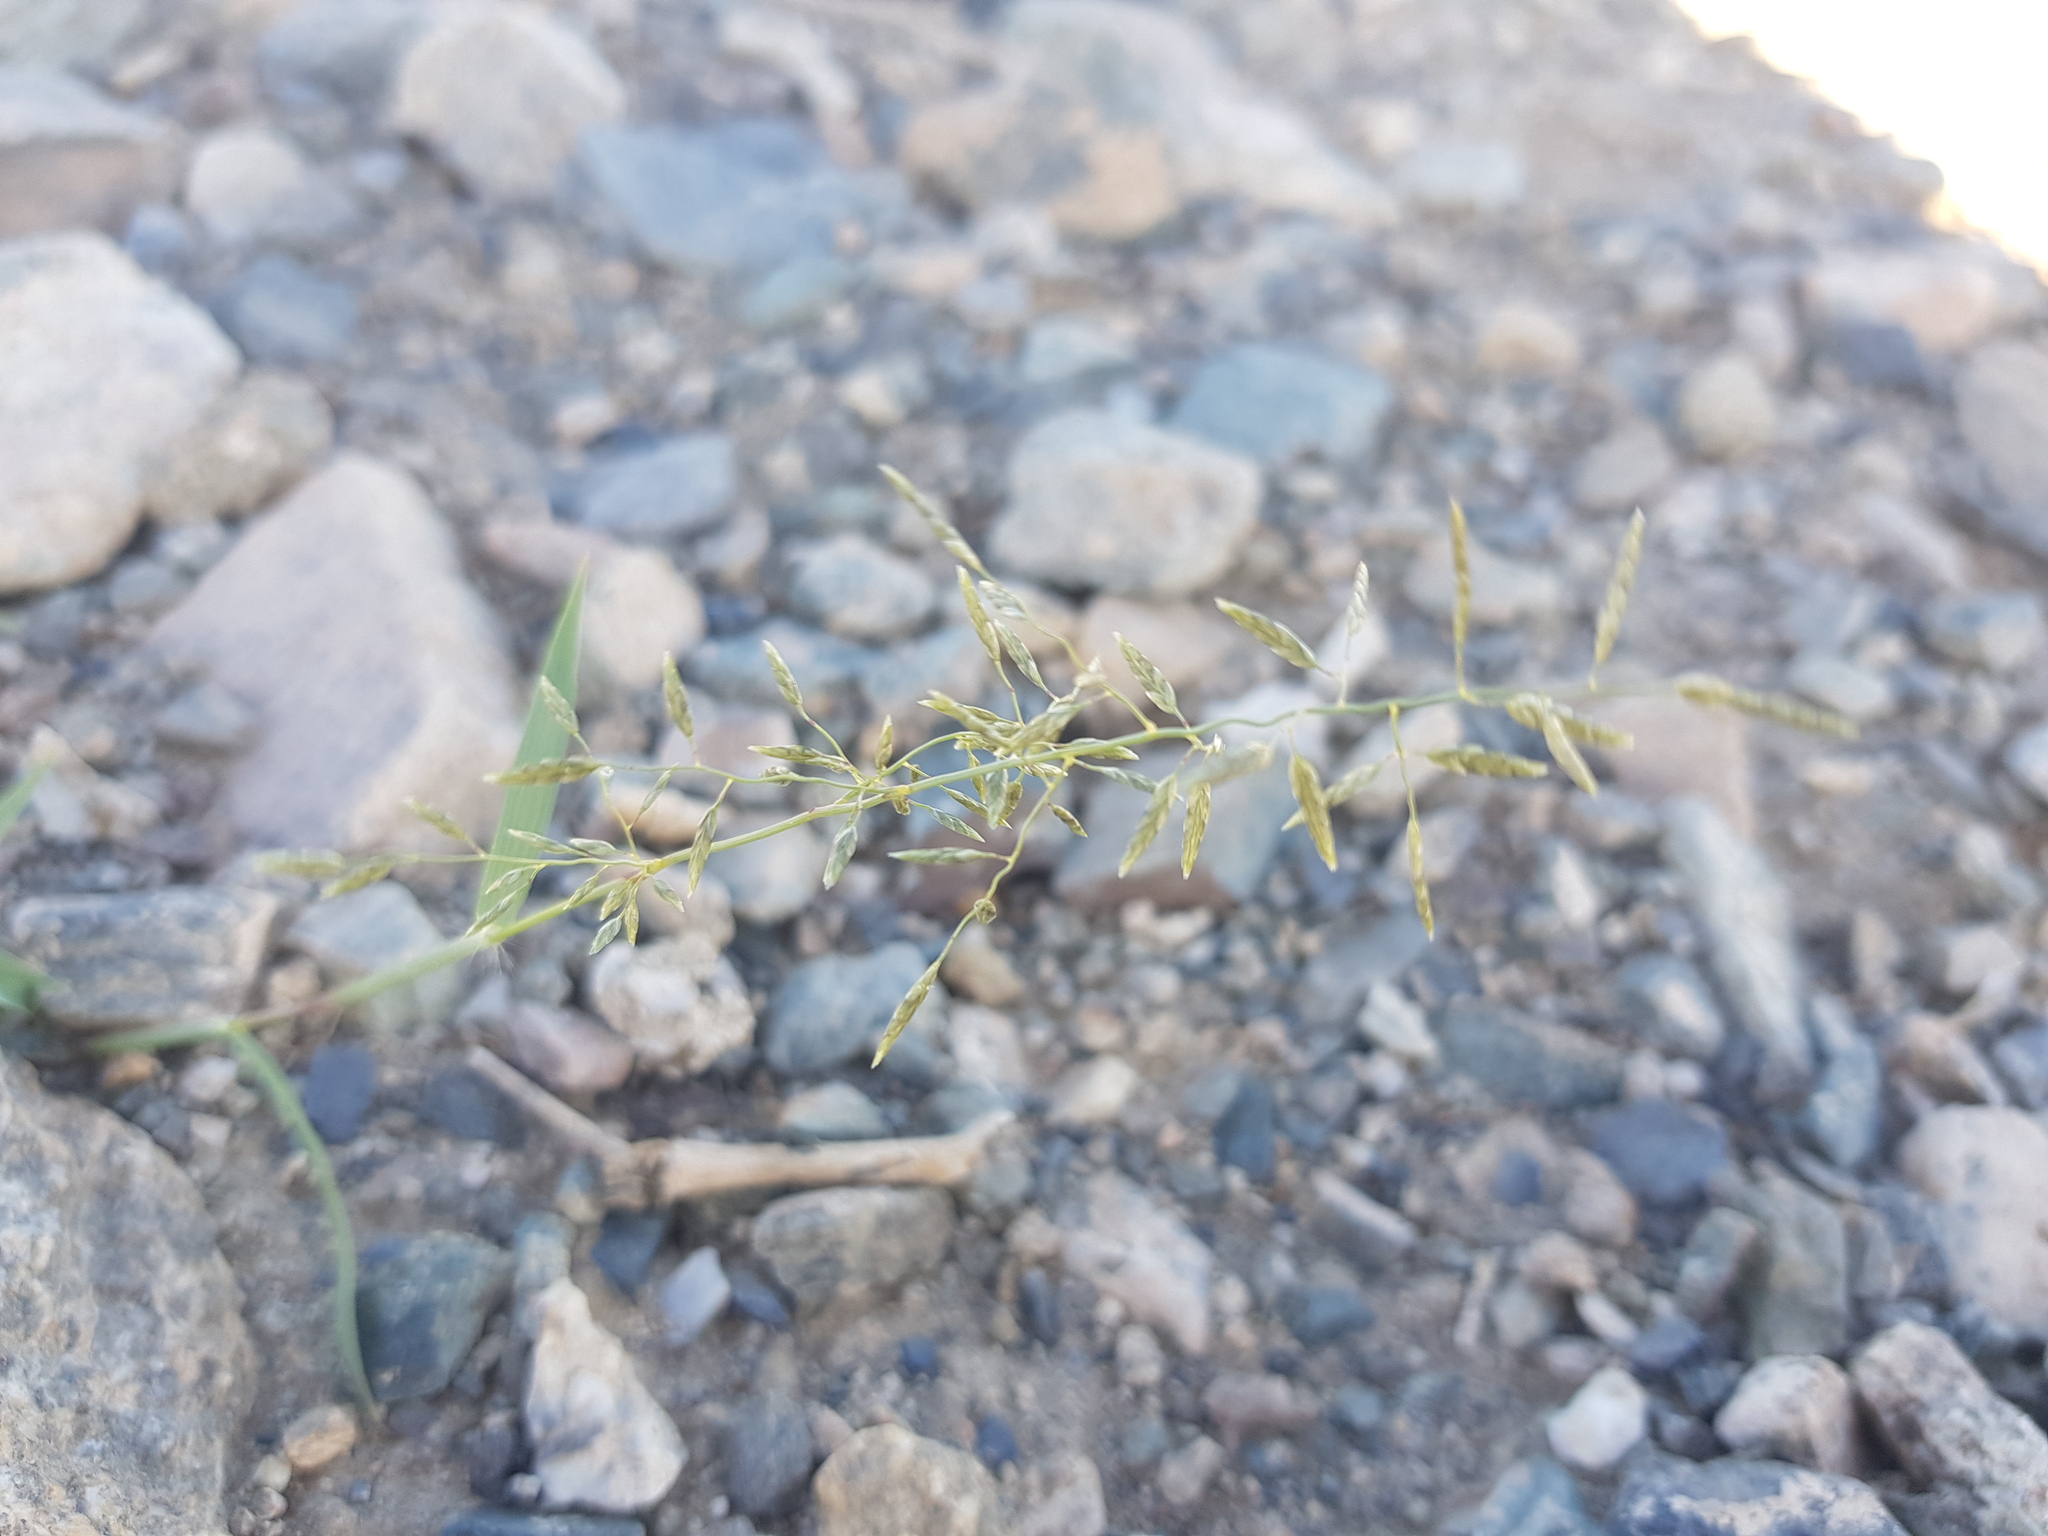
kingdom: Plantae
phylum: Tracheophyta
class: Liliopsida
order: Poales
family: Poaceae
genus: Eragrostis
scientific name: Eragrostis minor
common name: Small love-grass
